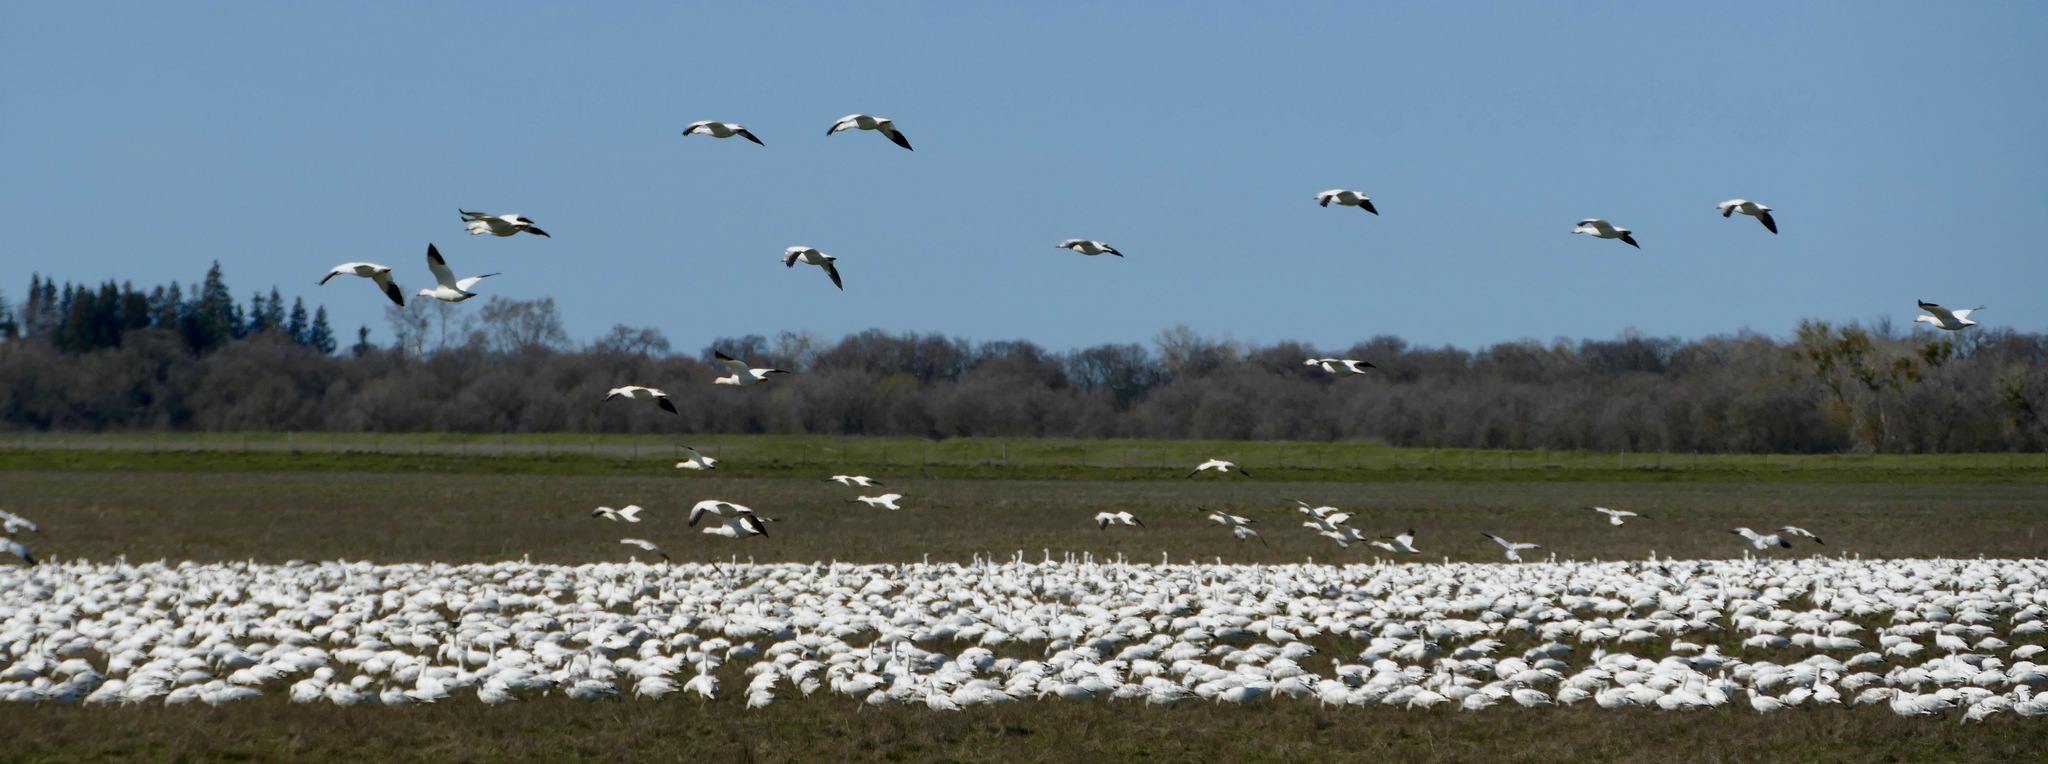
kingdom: Animalia
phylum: Chordata
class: Aves
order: Anseriformes
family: Anatidae
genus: Anser
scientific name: Anser caerulescens
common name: Snow goose
